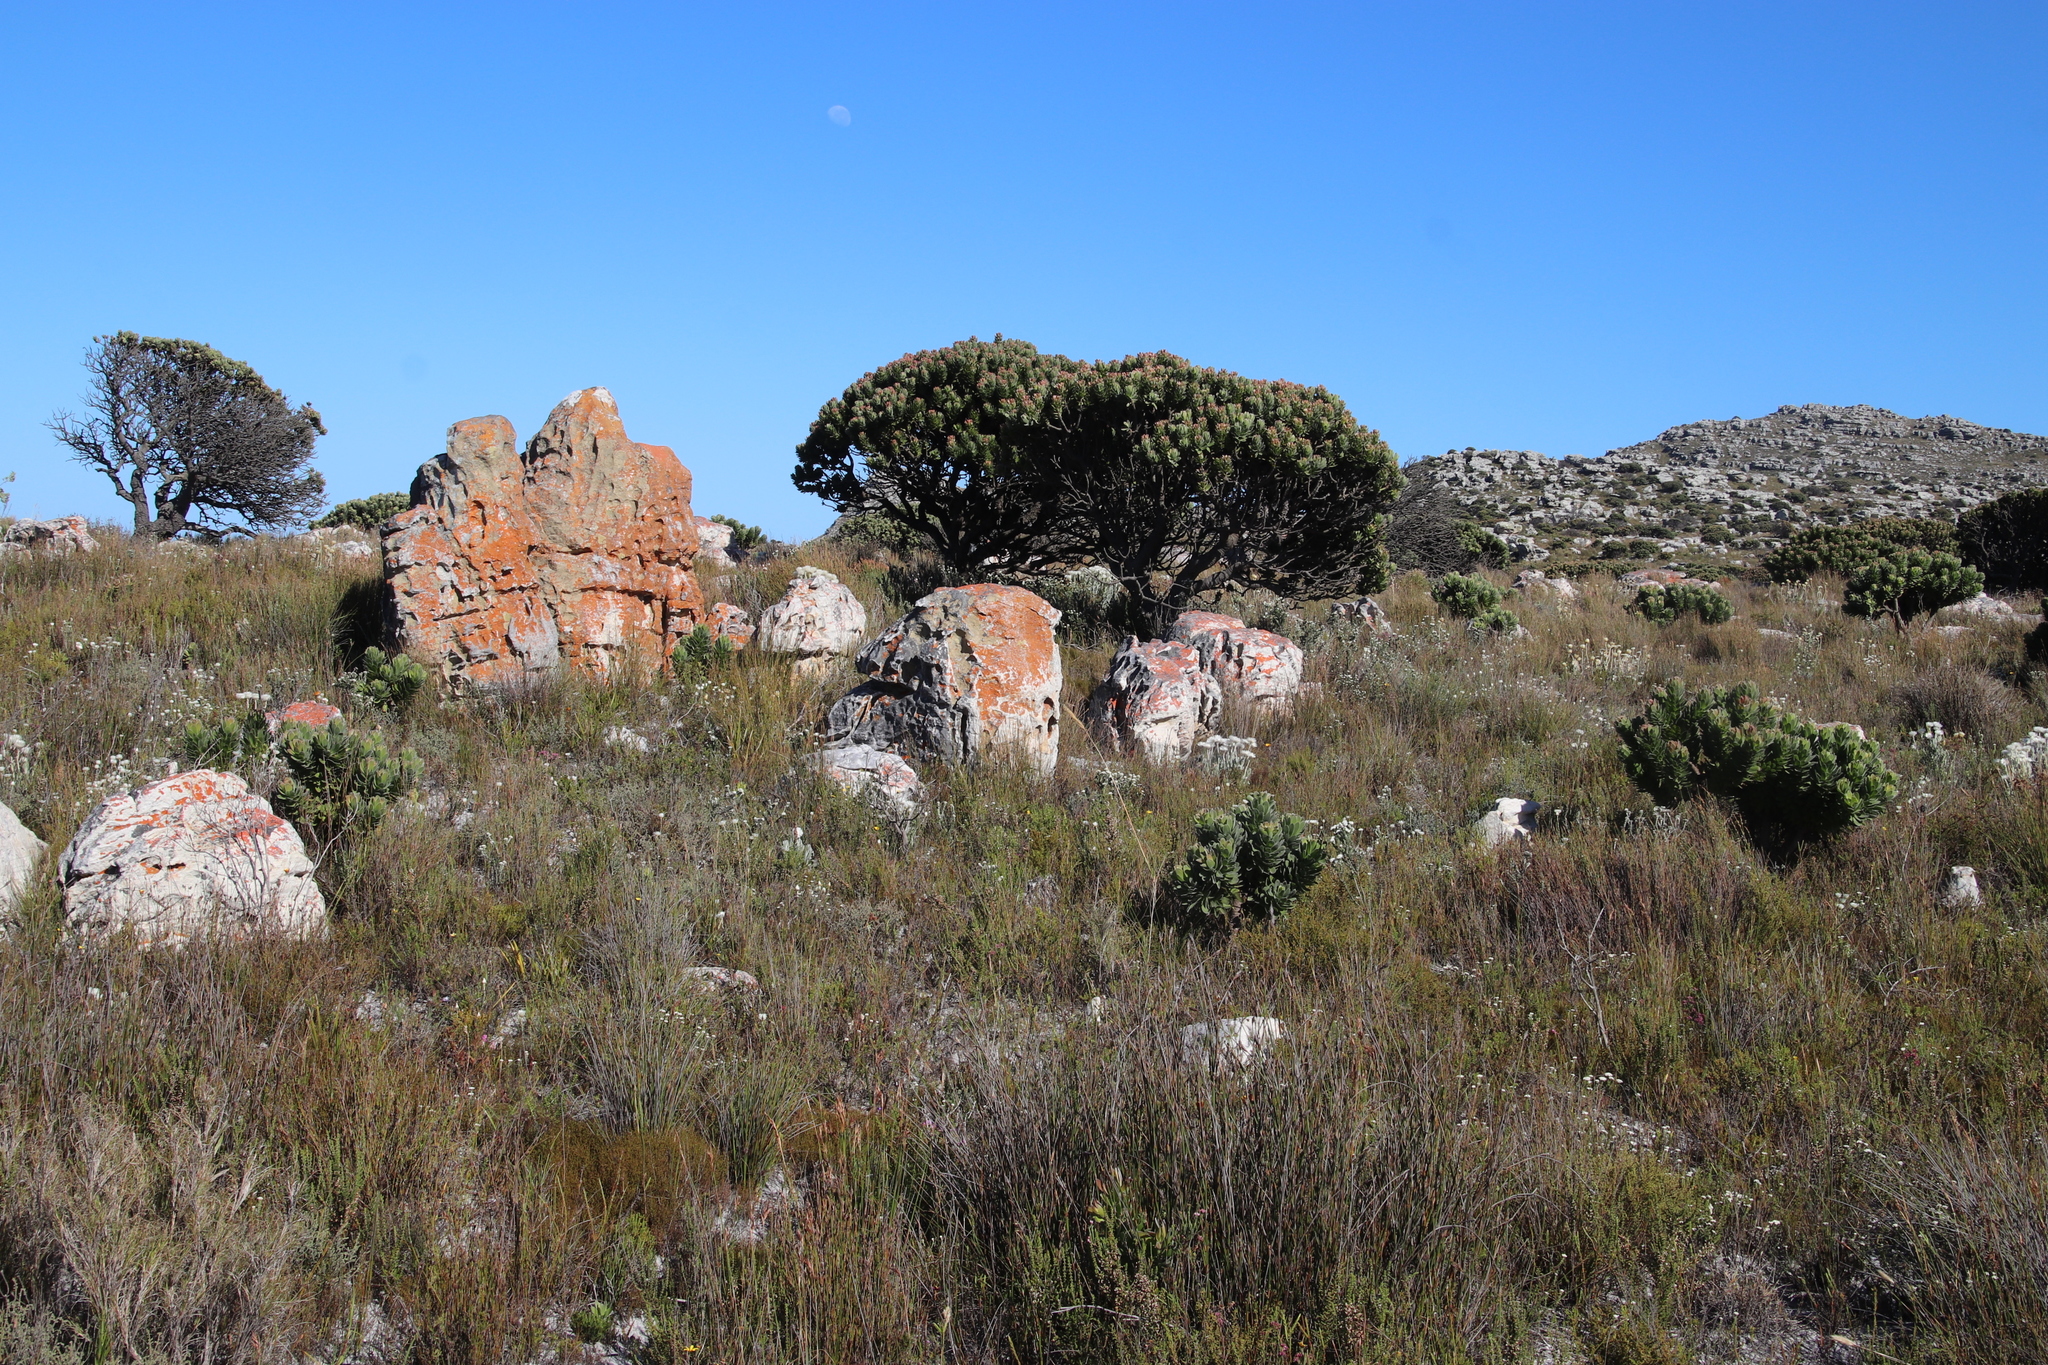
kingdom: Plantae
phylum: Tracheophyta
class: Magnoliopsida
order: Proteales
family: Proteaceae
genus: Mimetes
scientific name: Mimetes fimbriifolius
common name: Fringed bottlebrush
